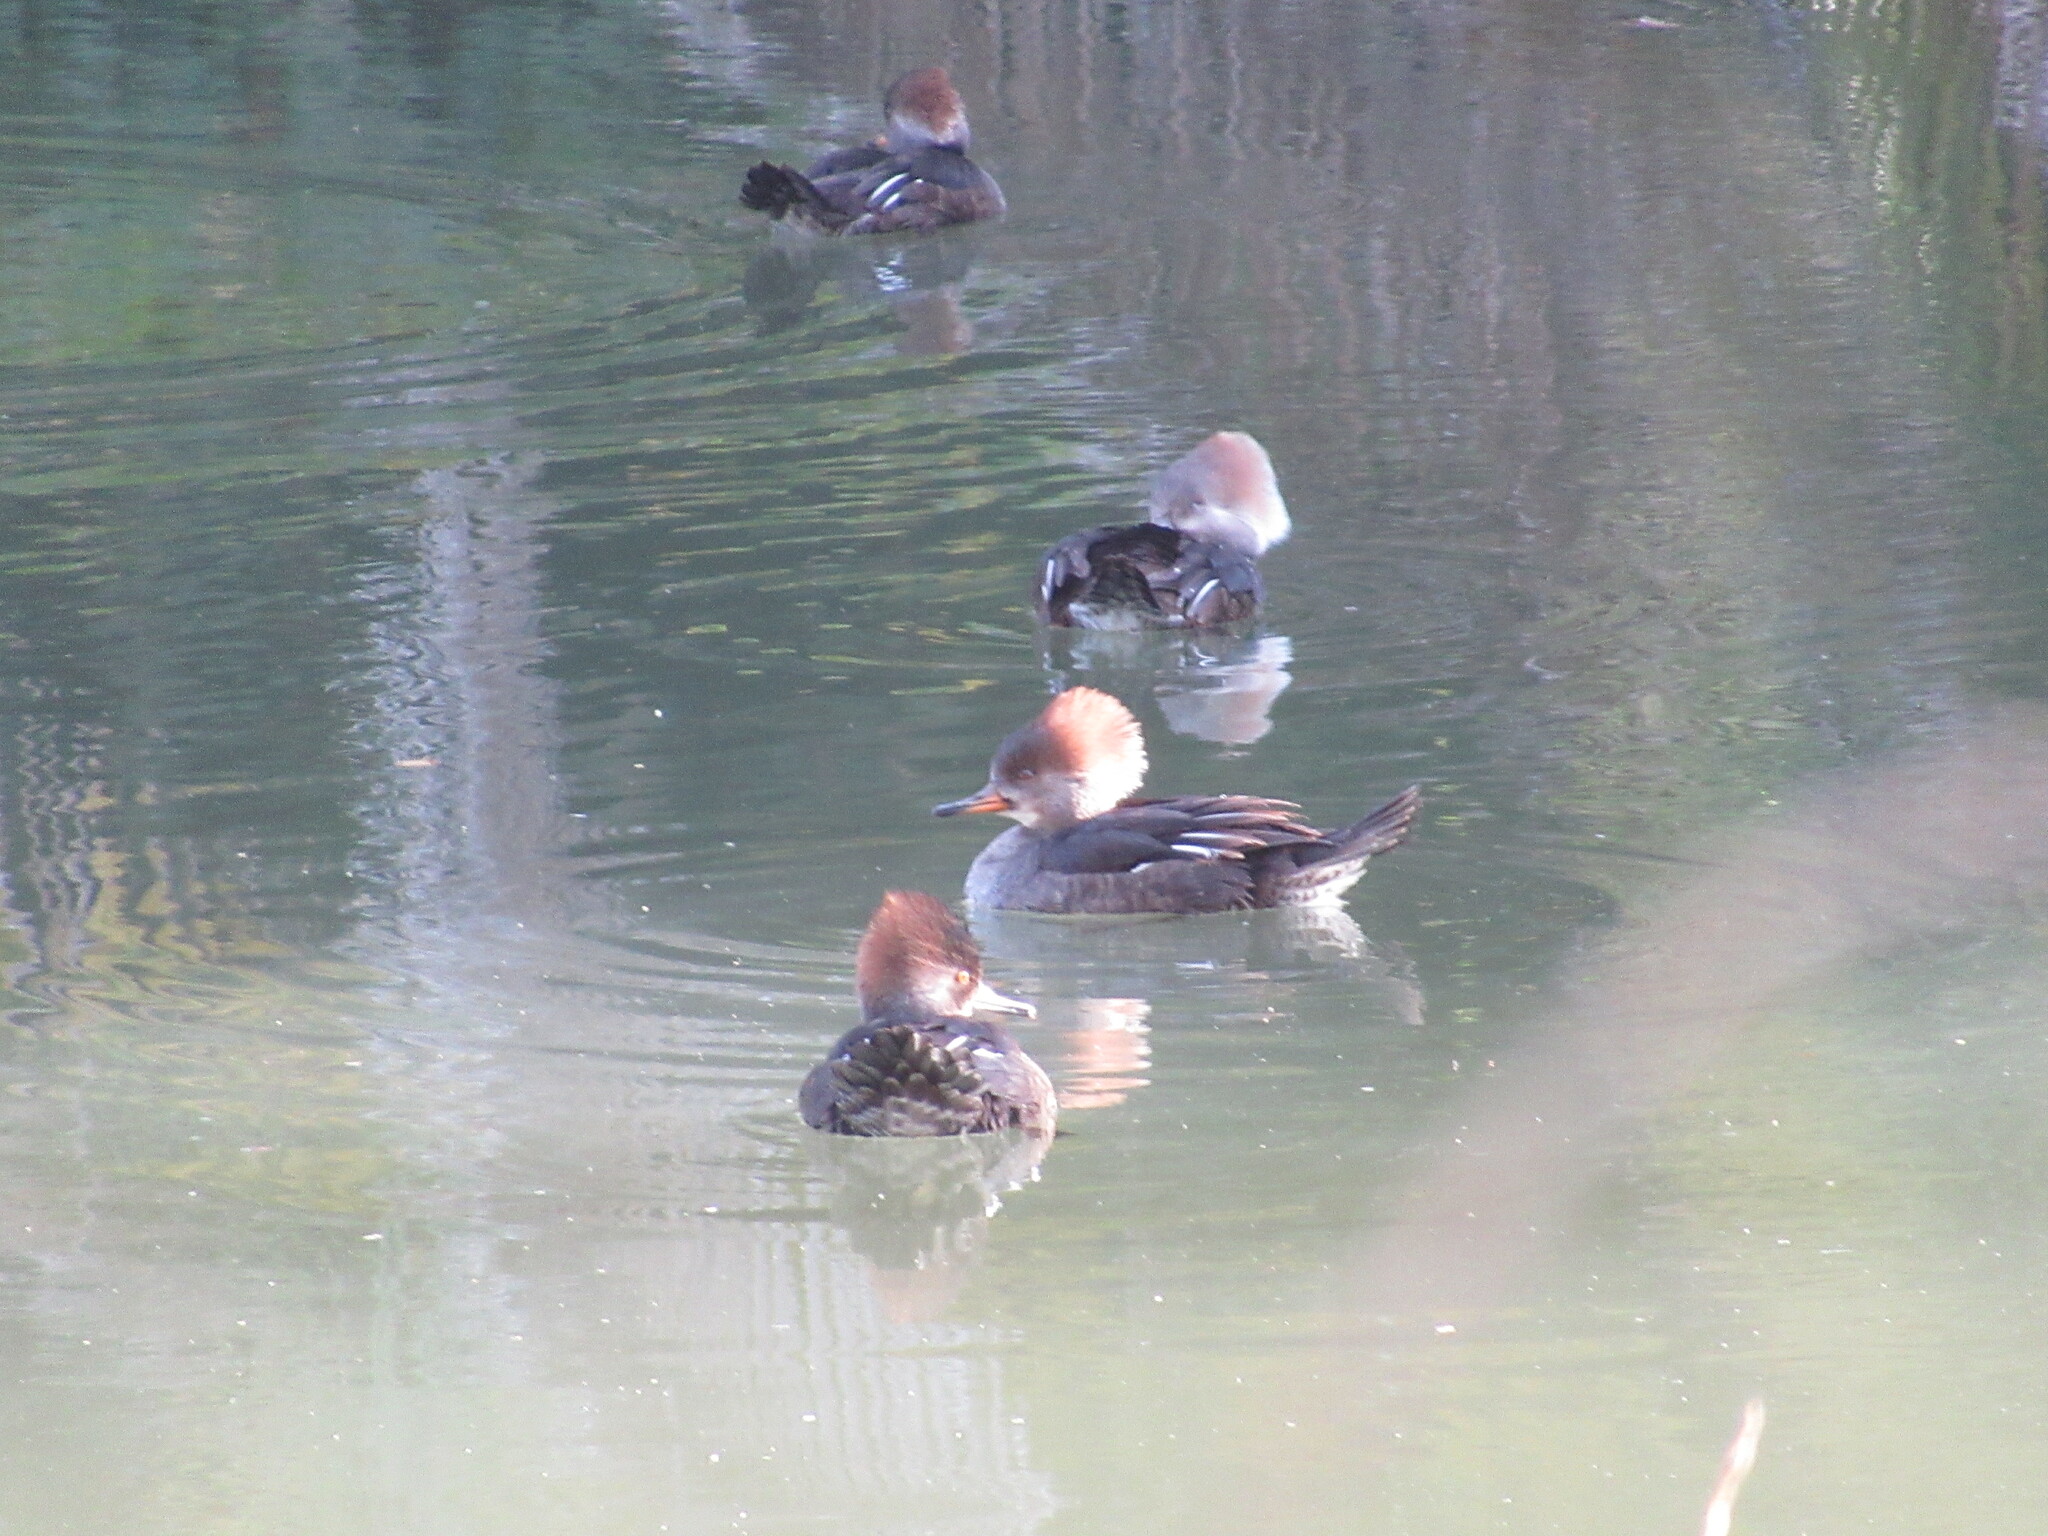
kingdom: Animalia
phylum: Chordata
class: Aves
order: Anseriformes
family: Anatidae
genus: Lophodytes
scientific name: Lophodytes cucullatus
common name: Hooded merganser
